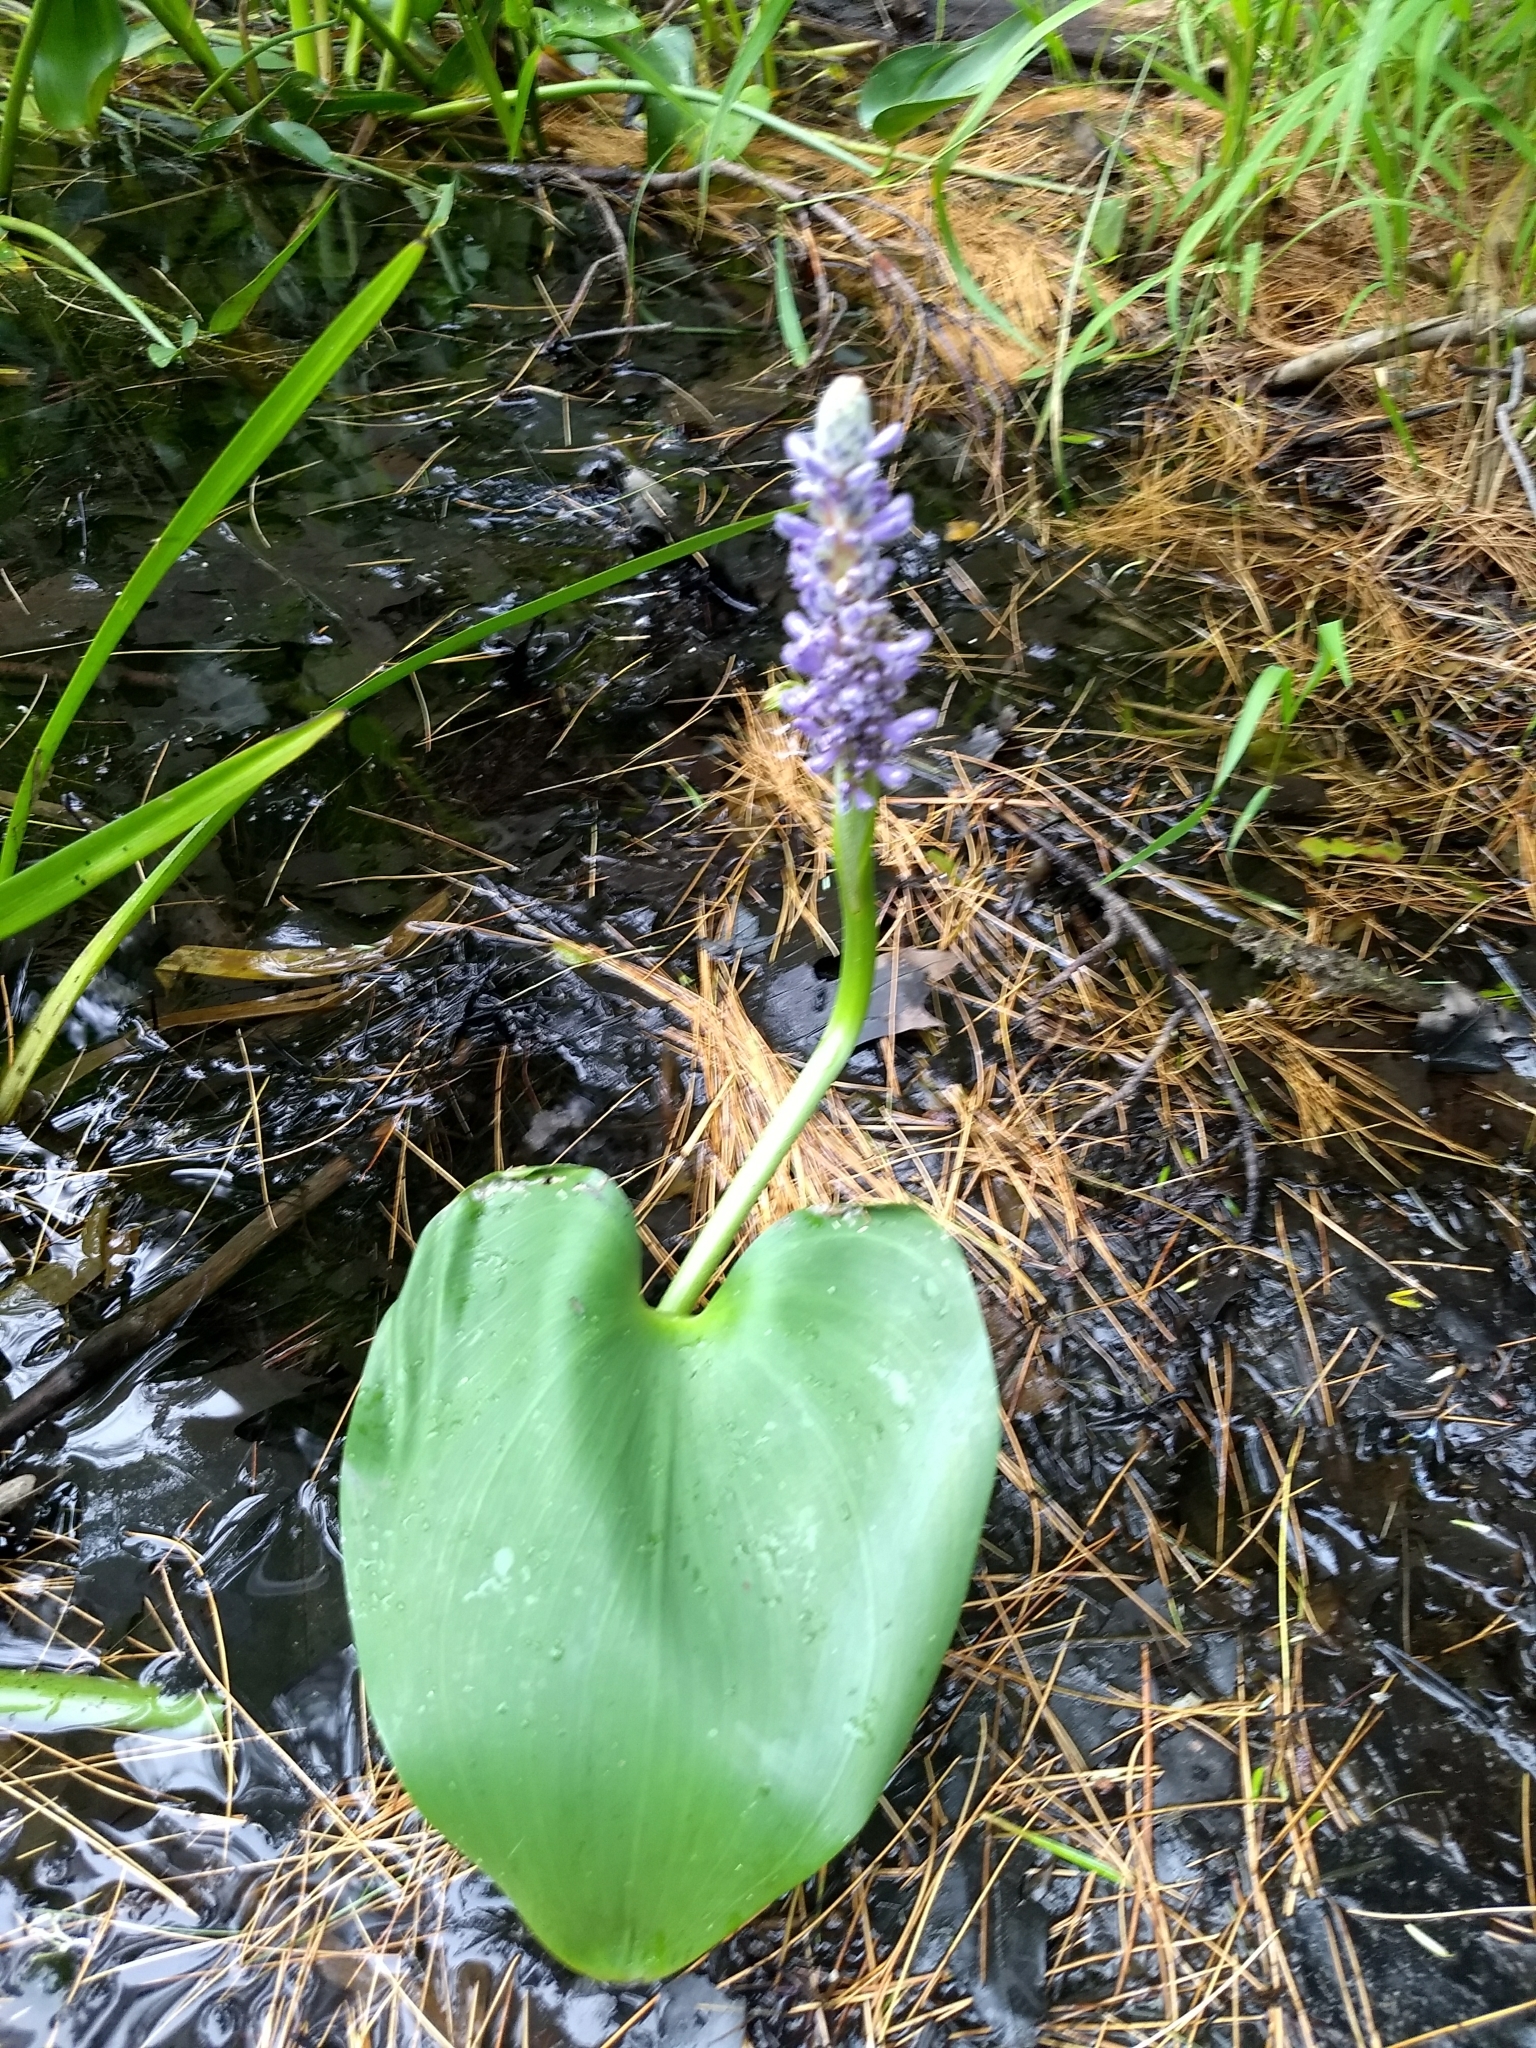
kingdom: Plantae
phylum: Tracheophyta
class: Liliopsida
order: Commelinales
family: Pontederiaceae
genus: Pontederia
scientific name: Pontederia cordata
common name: Pickerelweed
